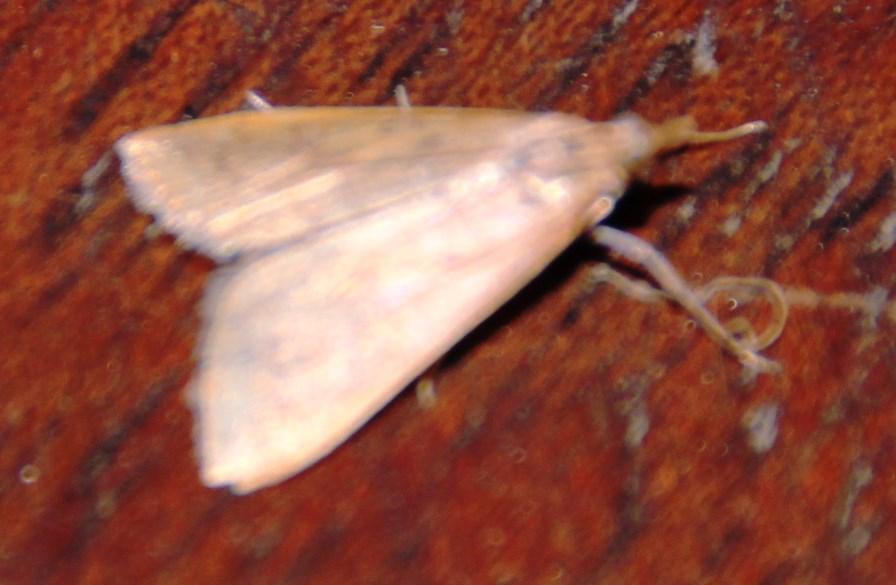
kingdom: Animalia
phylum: Arthropoda
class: Insecta
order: Lepidoptera
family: Crambidae
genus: Udea
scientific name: Udea ferrugalis
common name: Rusty dot
